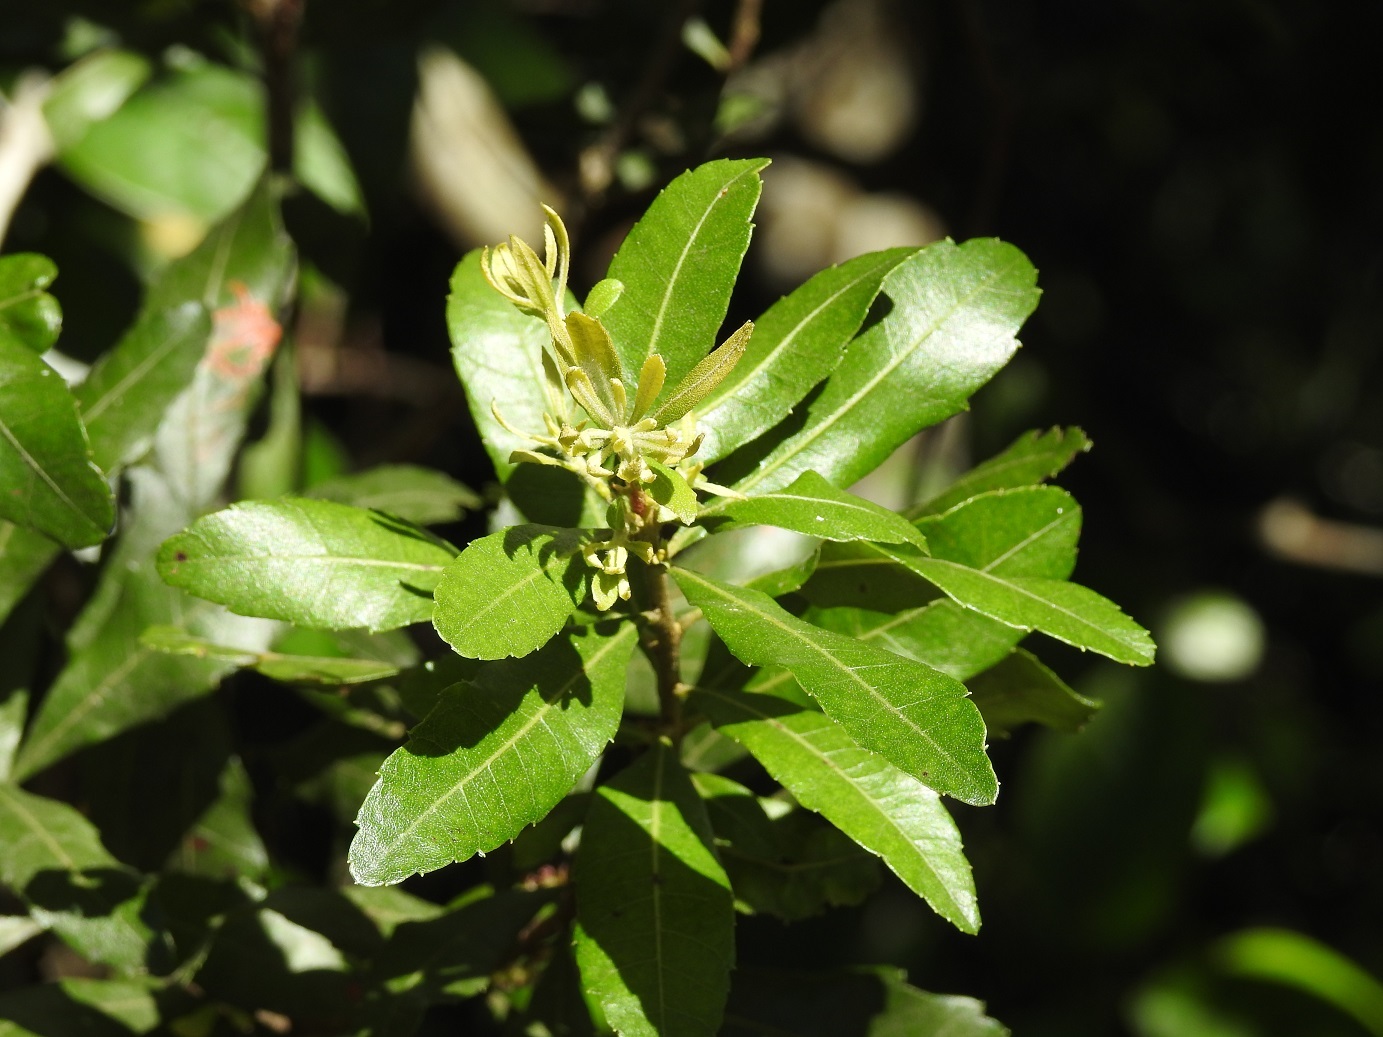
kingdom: Plantae
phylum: Tracheophyta
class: Magnoliopsida
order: Fagales
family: Myricaceae
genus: Morella
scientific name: Morella cerifera
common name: Wax myrtle
